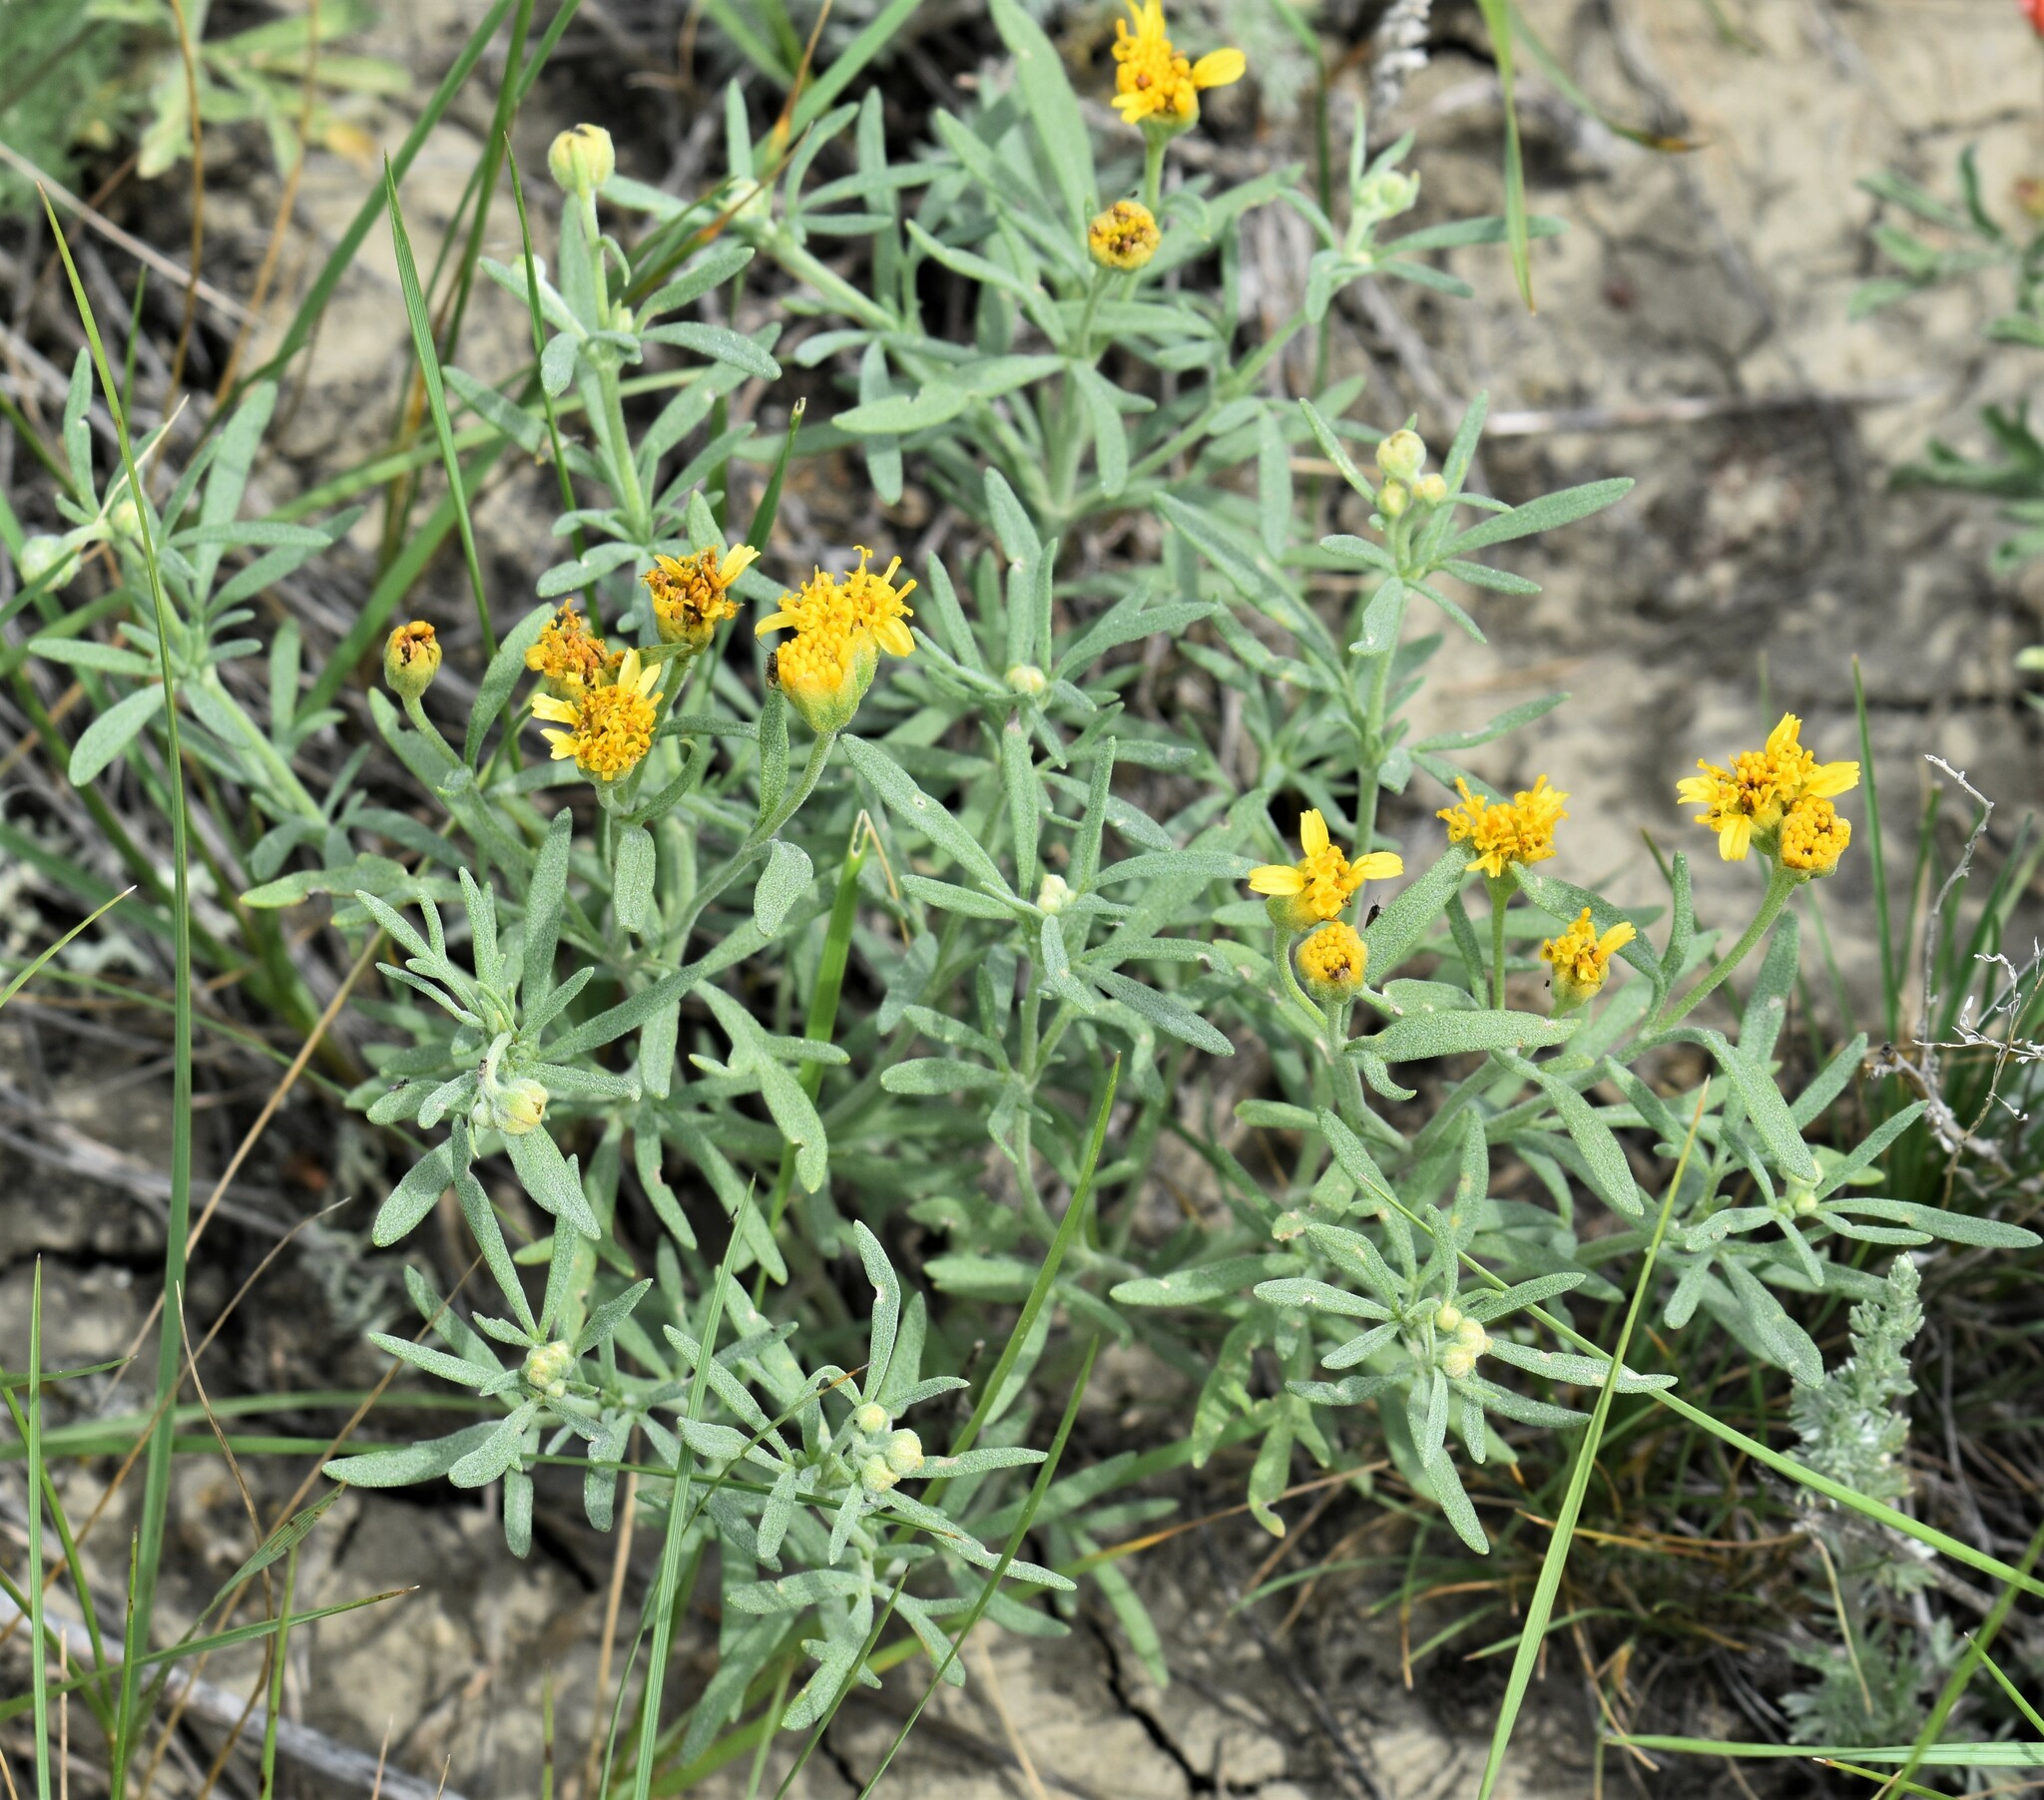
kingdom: Plantae
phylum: Tracheophyta
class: Magnoliopsida
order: Asterales
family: Asteraceae
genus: Picradeniopsis
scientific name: Picradeniopsis oppositifolia
